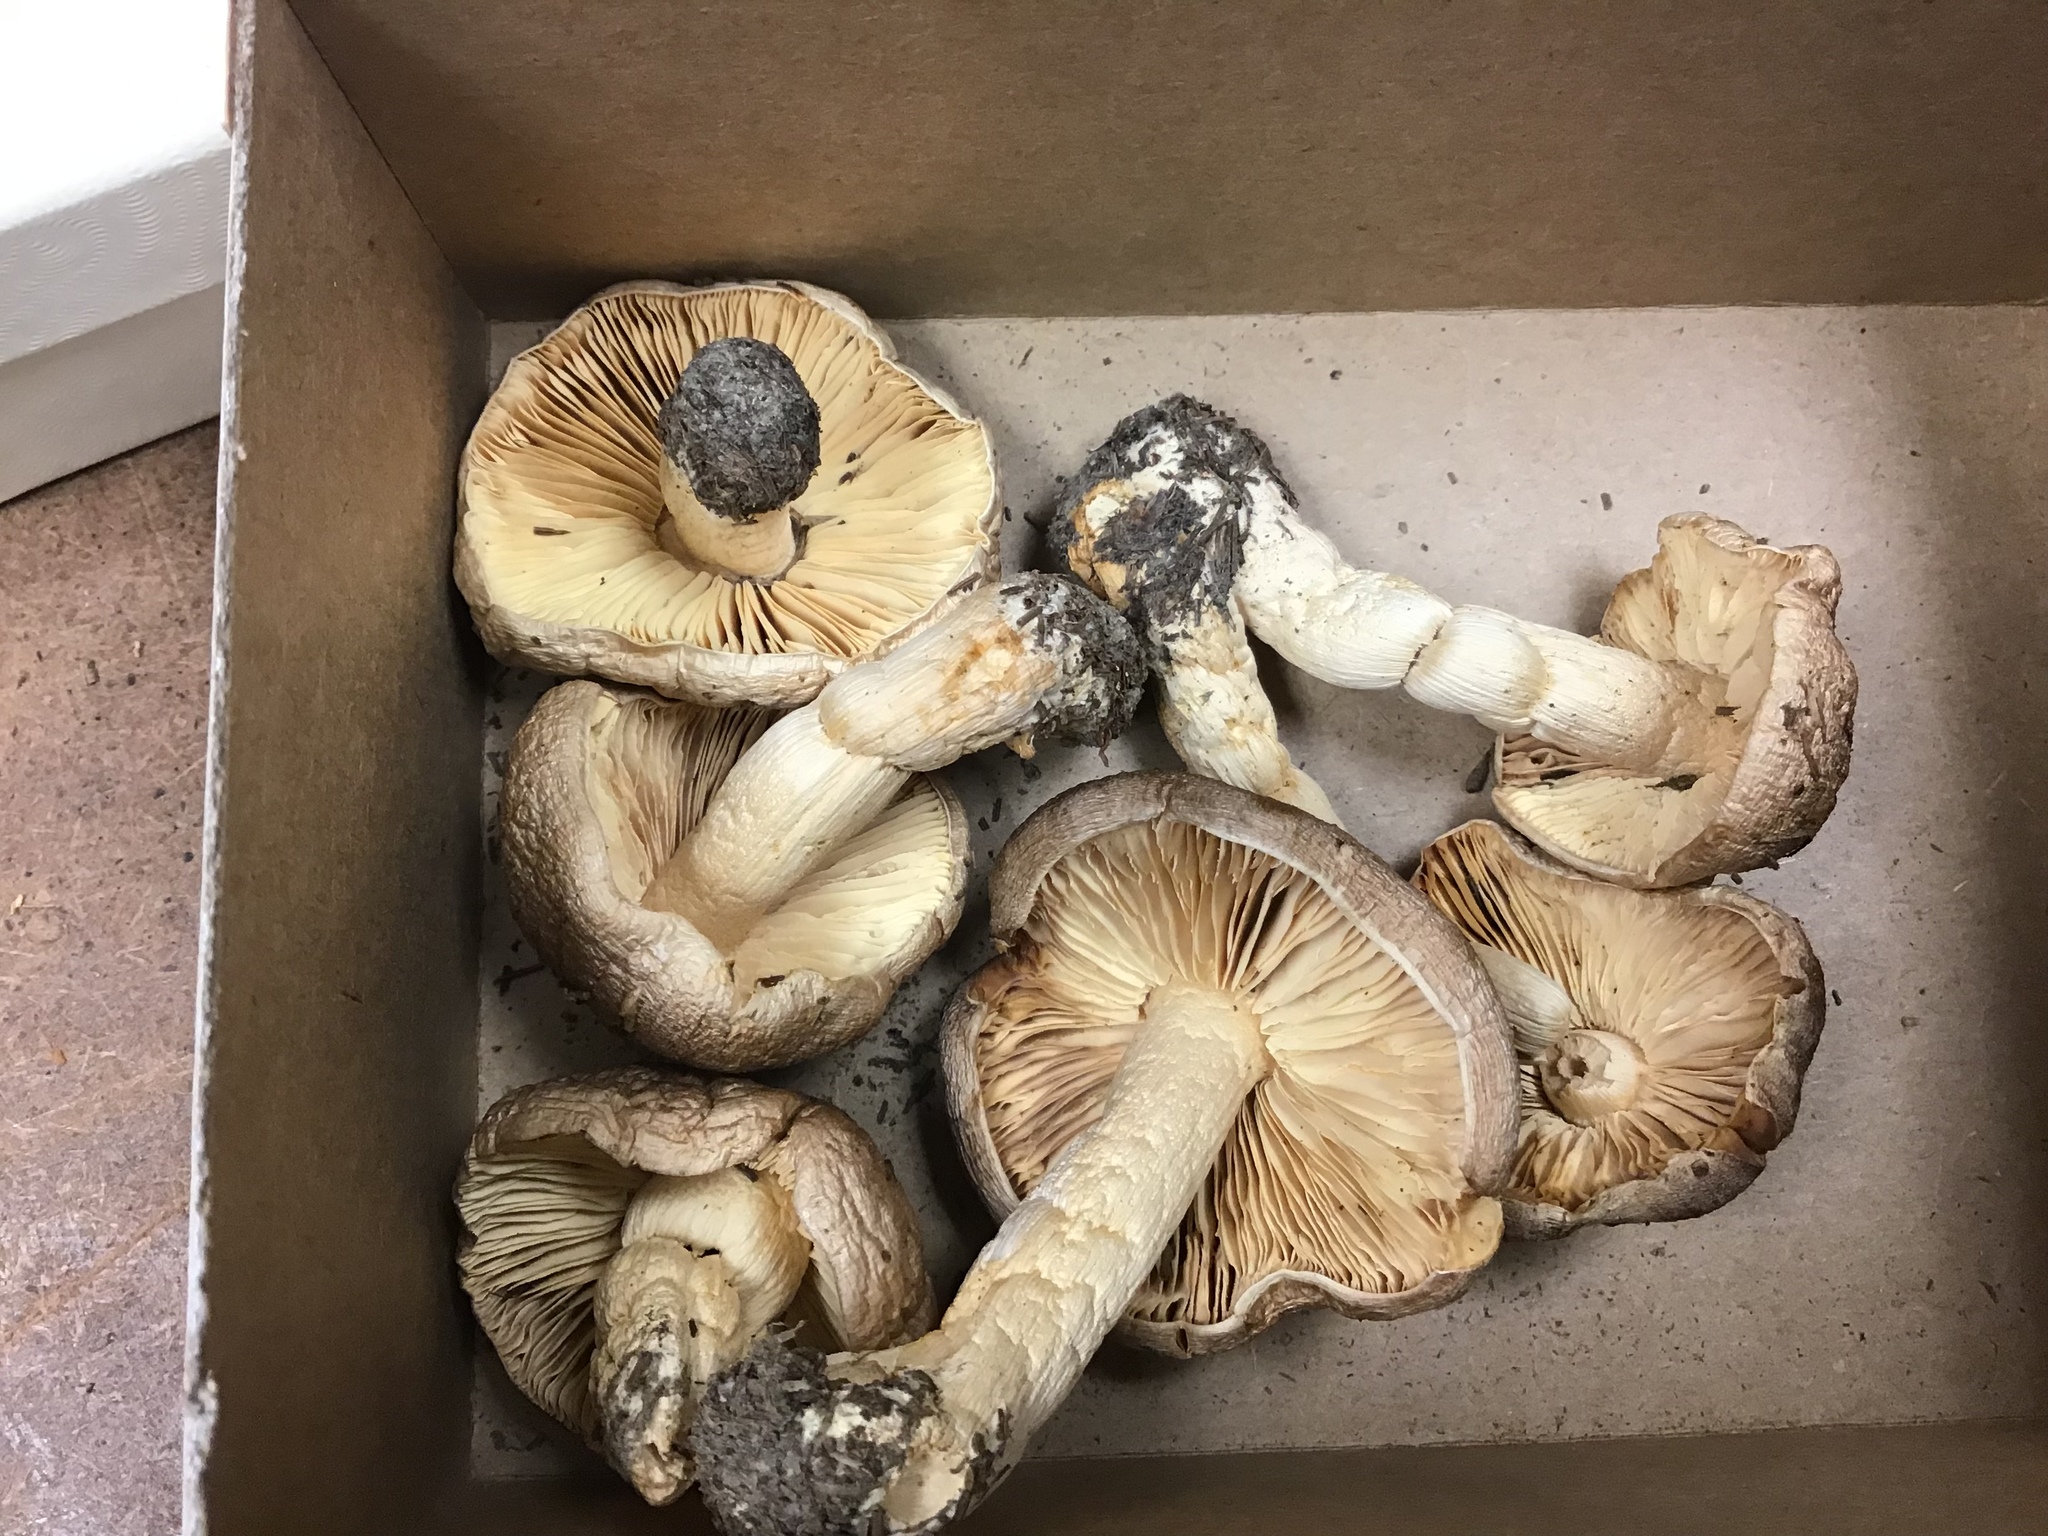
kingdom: Fungi
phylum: Basidiomycota
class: Agaricomycetes
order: Agaricales
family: Tricholomataceae
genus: Tricholoma
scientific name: Tricholoma portentosum
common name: Coalman
